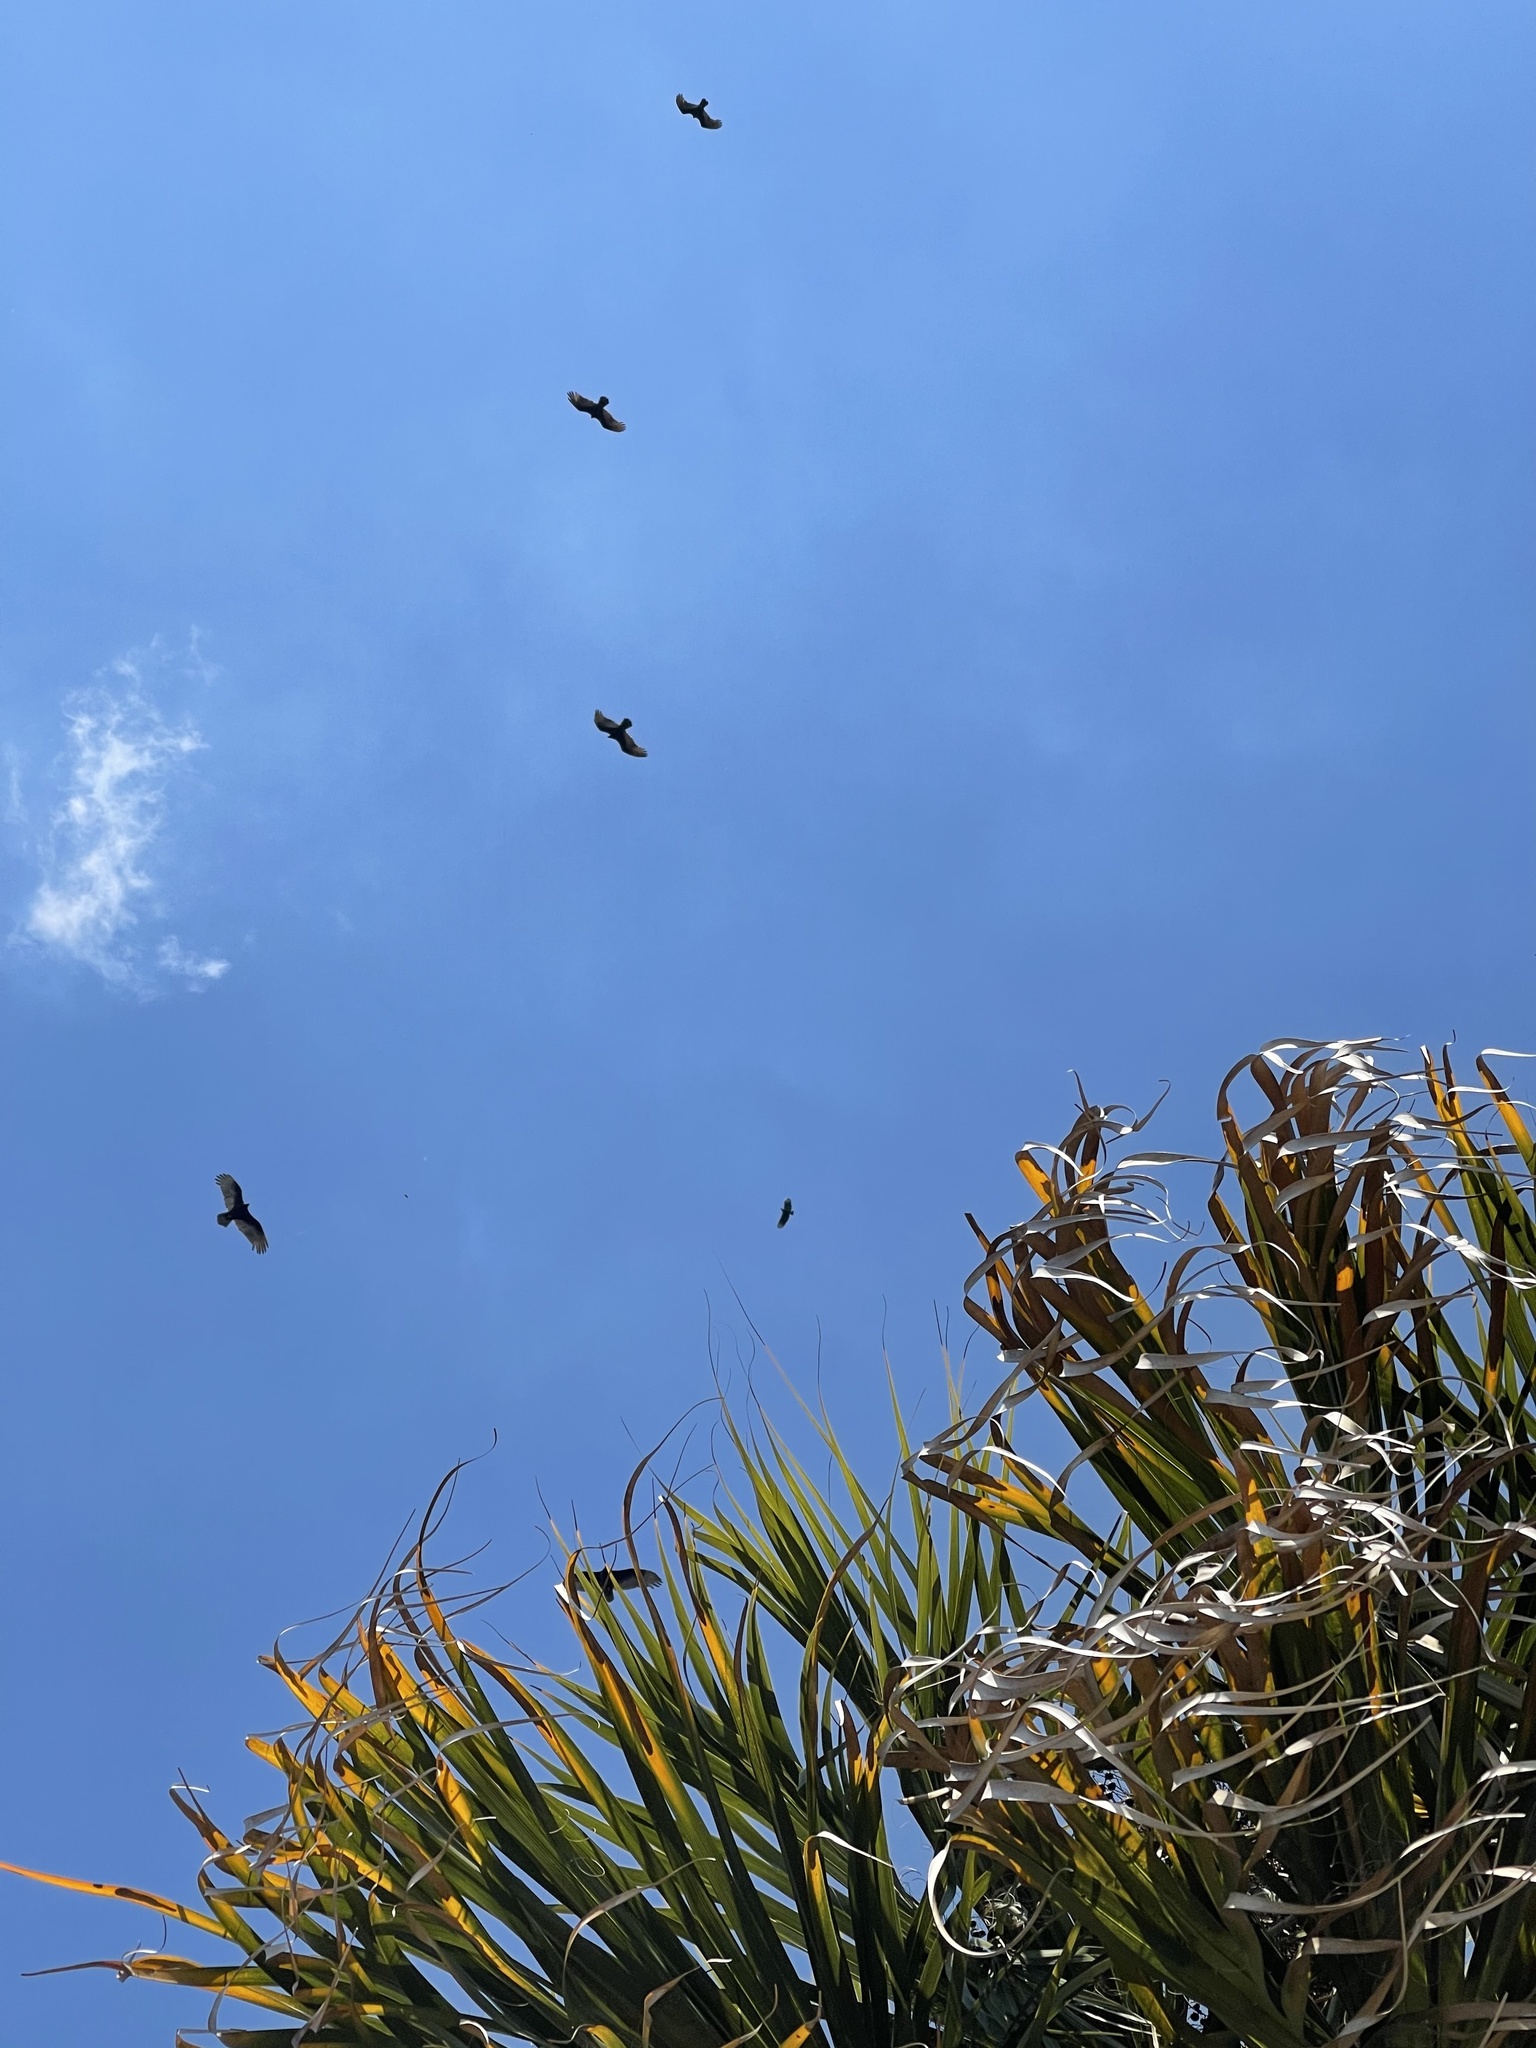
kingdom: Animalia
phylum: Chordata
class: Aves
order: Accipitriformes
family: Cathartidae
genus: Cathartes
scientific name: Cathartes aura
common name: Turkey vulture
